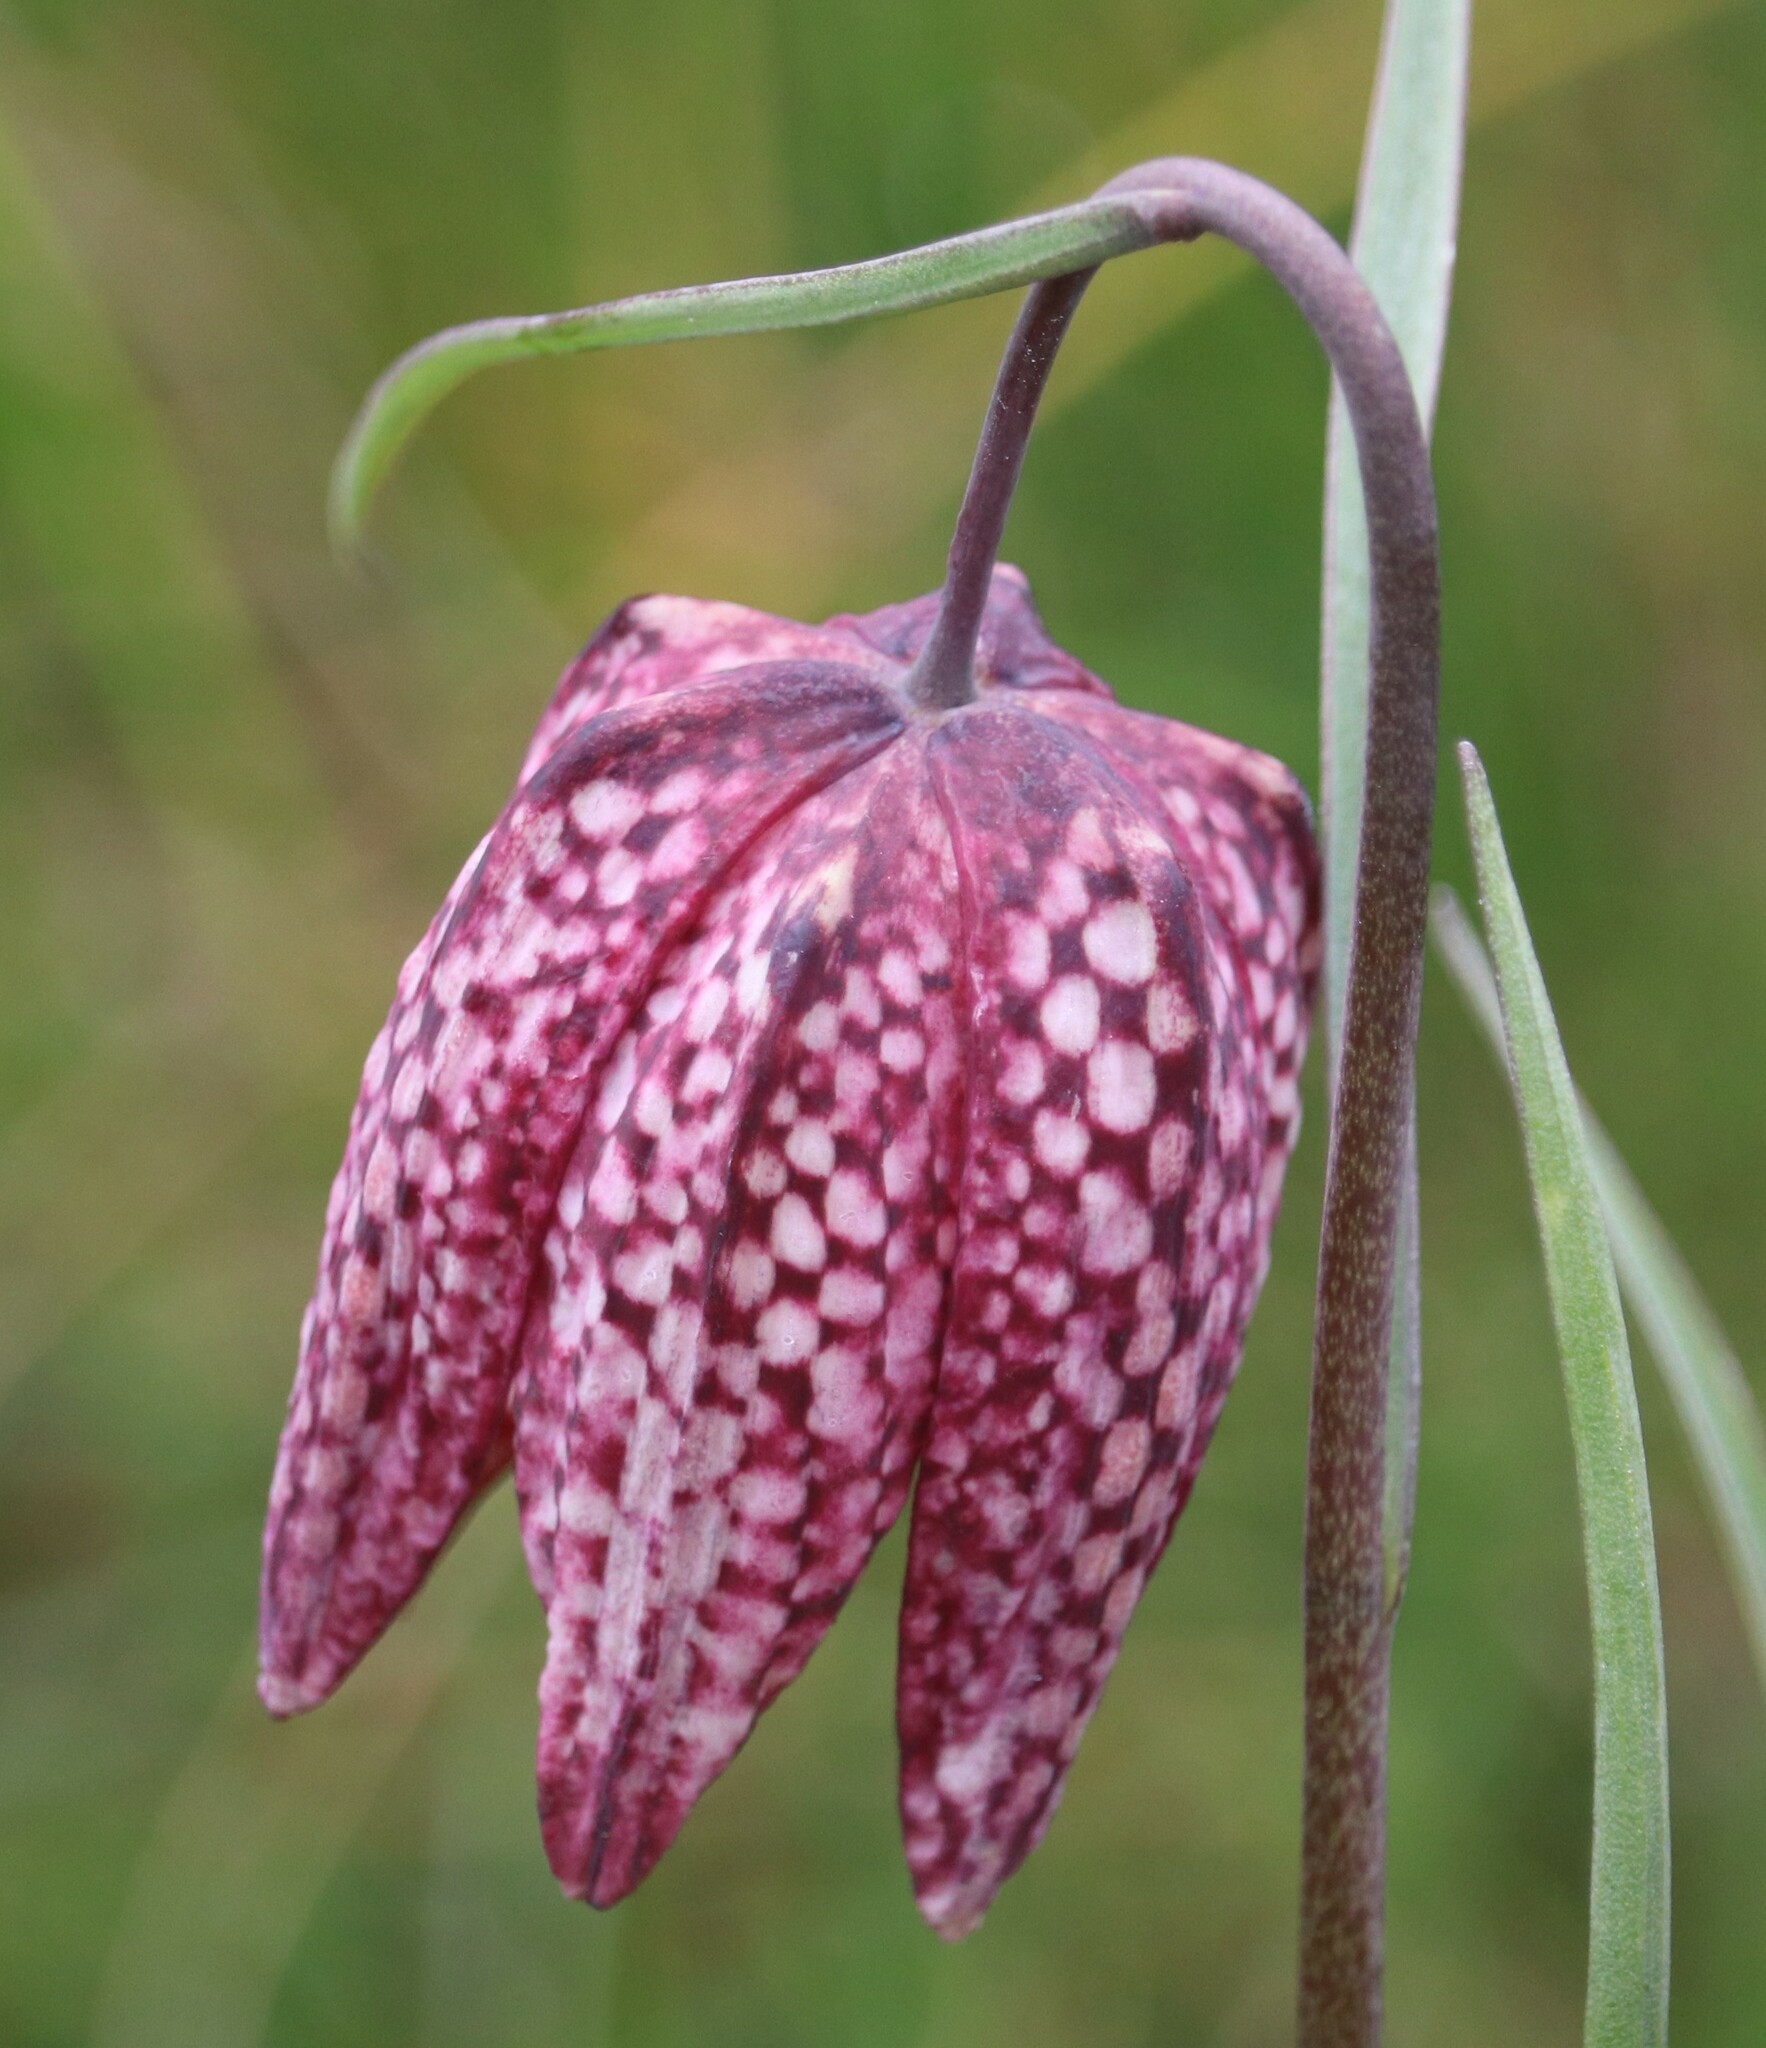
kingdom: Plantae
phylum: Tracheophyta
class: Liliopsida
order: Liliales
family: Liliaceae
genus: Fritillaria
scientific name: Fritillaria meleagris
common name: Fritillary
